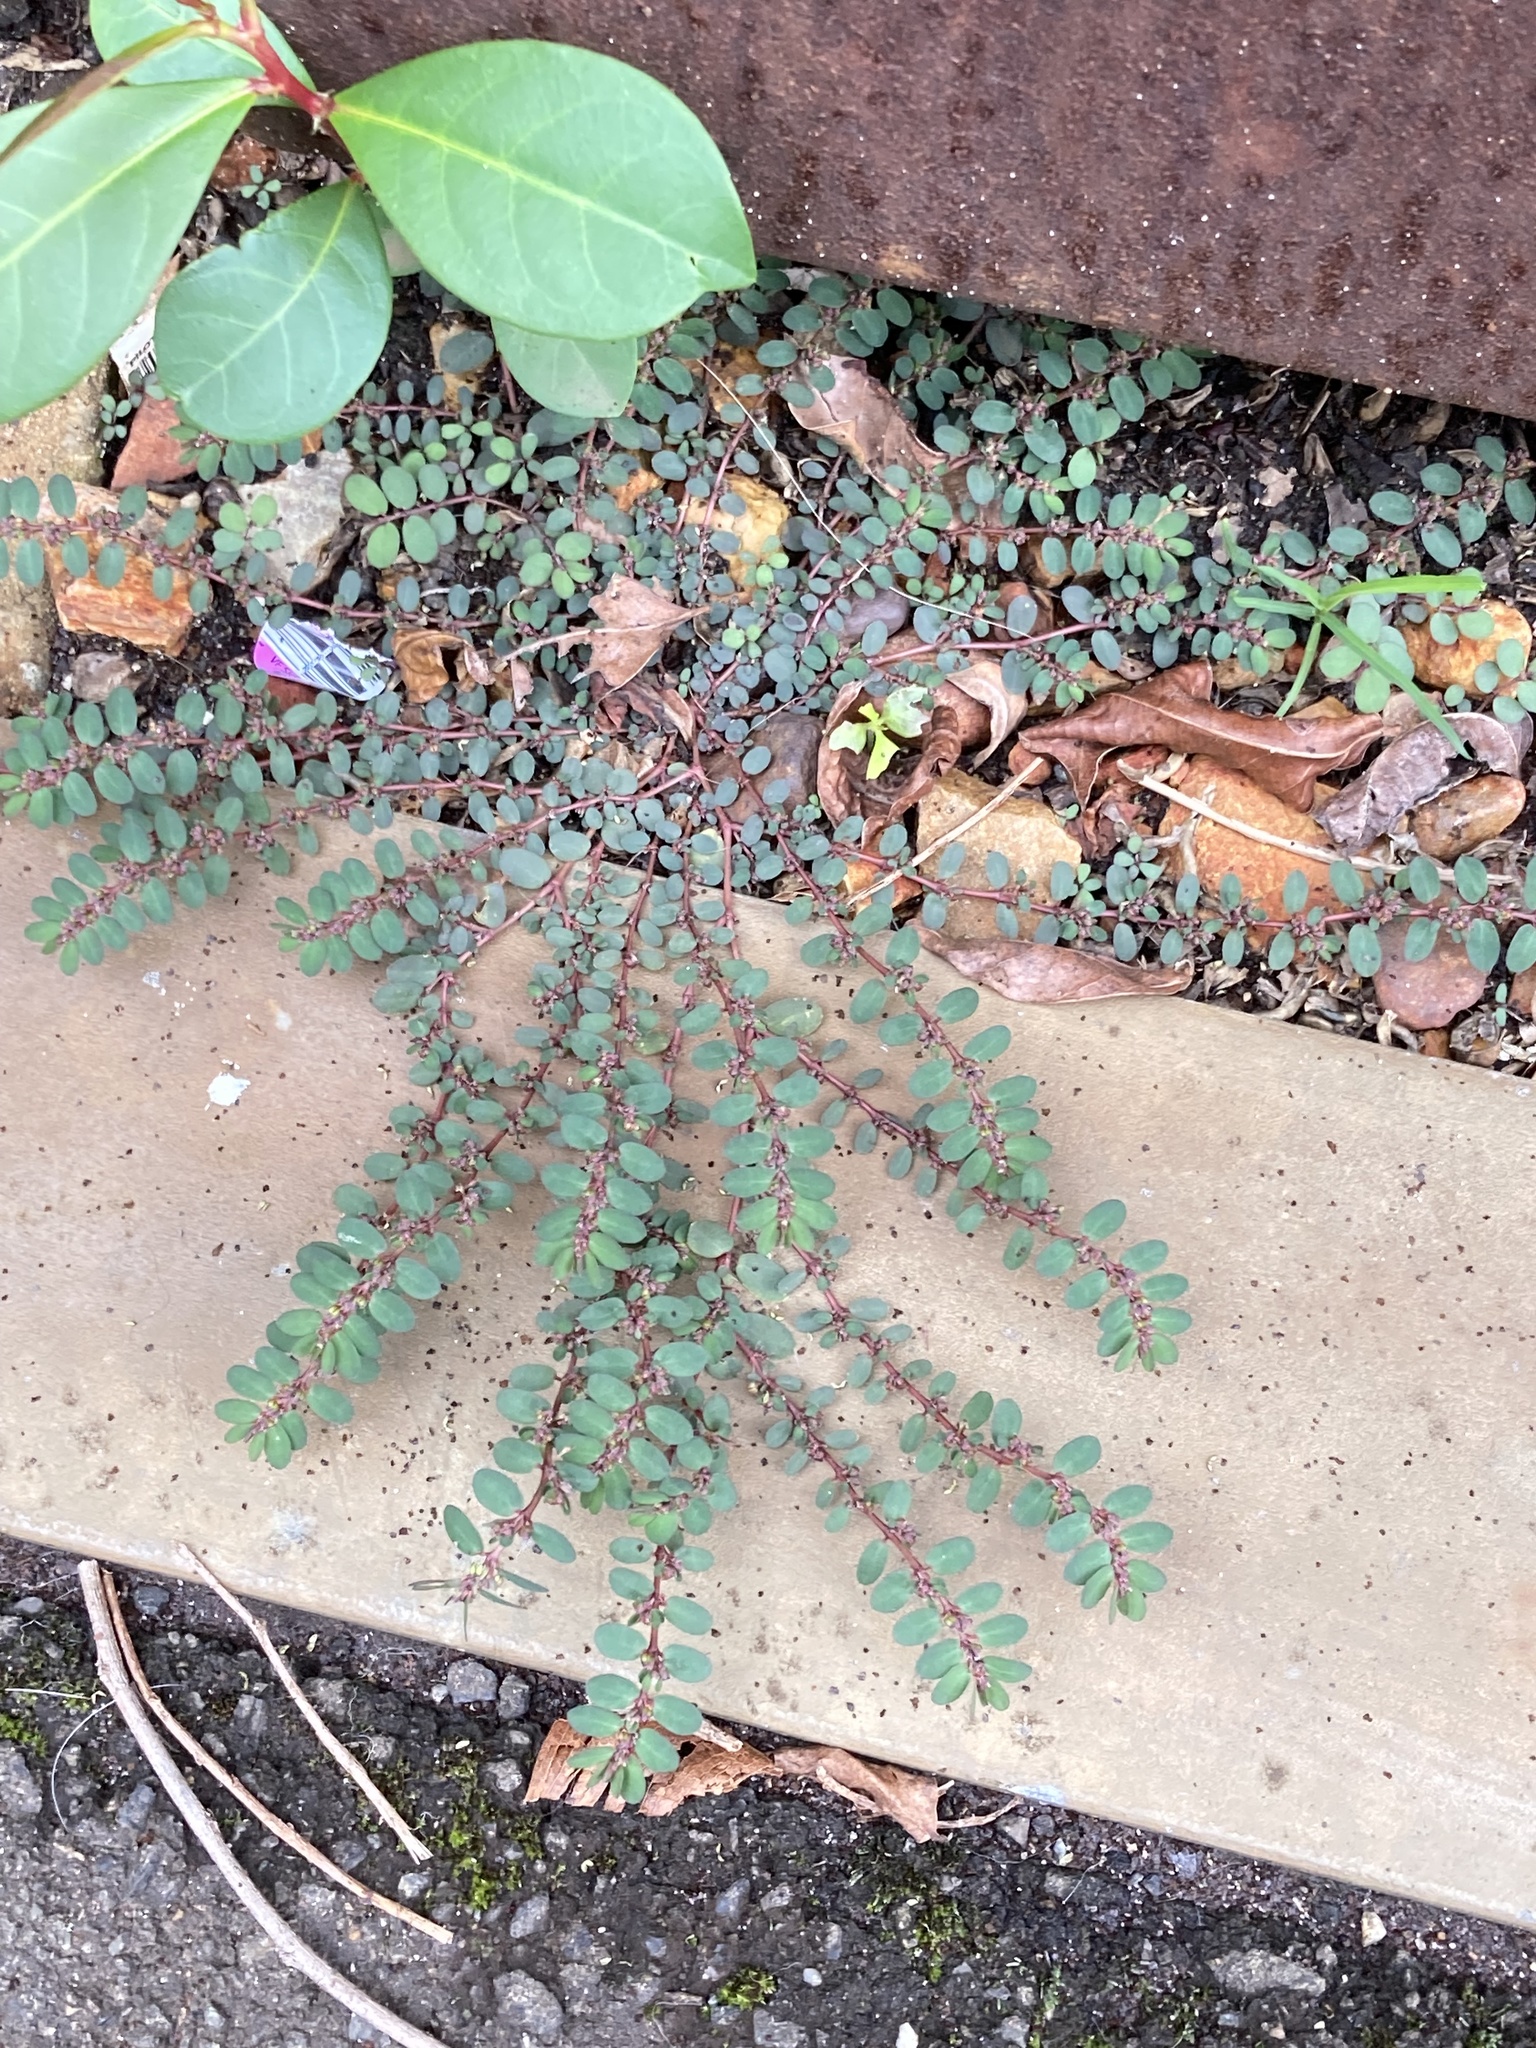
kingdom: Plantae
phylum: Tracheophyta
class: Magnoliopsida
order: Malpighiales
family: Euphorbiaceae
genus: Euphorbia
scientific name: Euphorbia prostrata
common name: Prostrate sandmat
